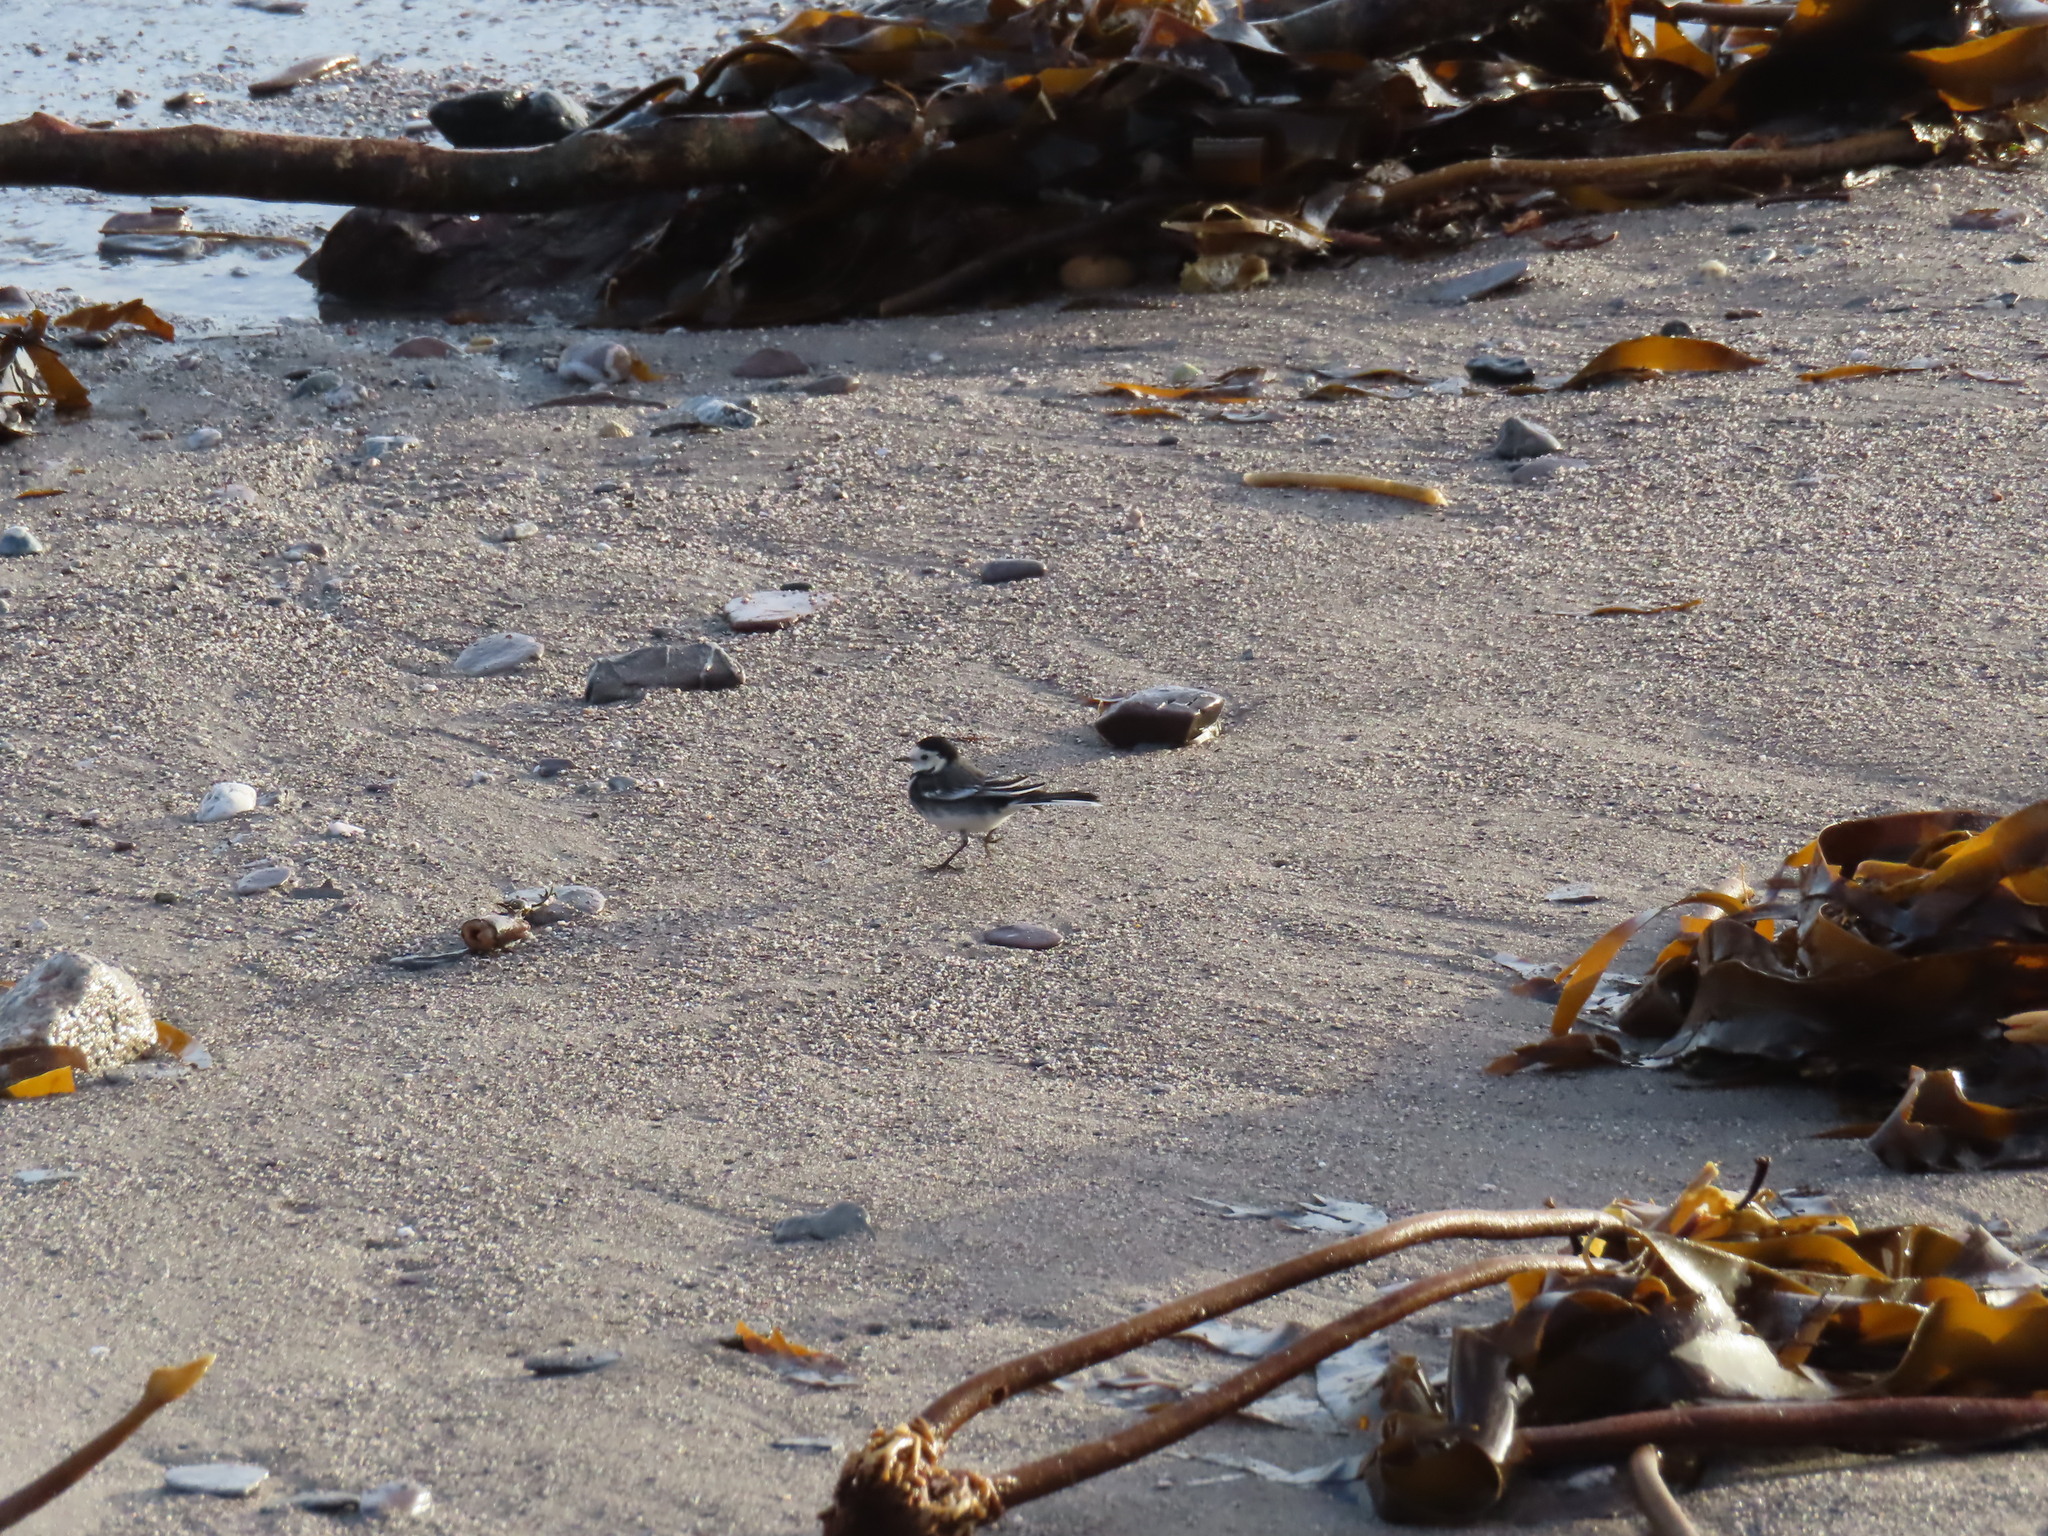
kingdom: Animalia
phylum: Chordata
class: Aves
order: Passeriformes
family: Motacillidae
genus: Motacilla
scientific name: Motacilla alba
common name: White wagtail
